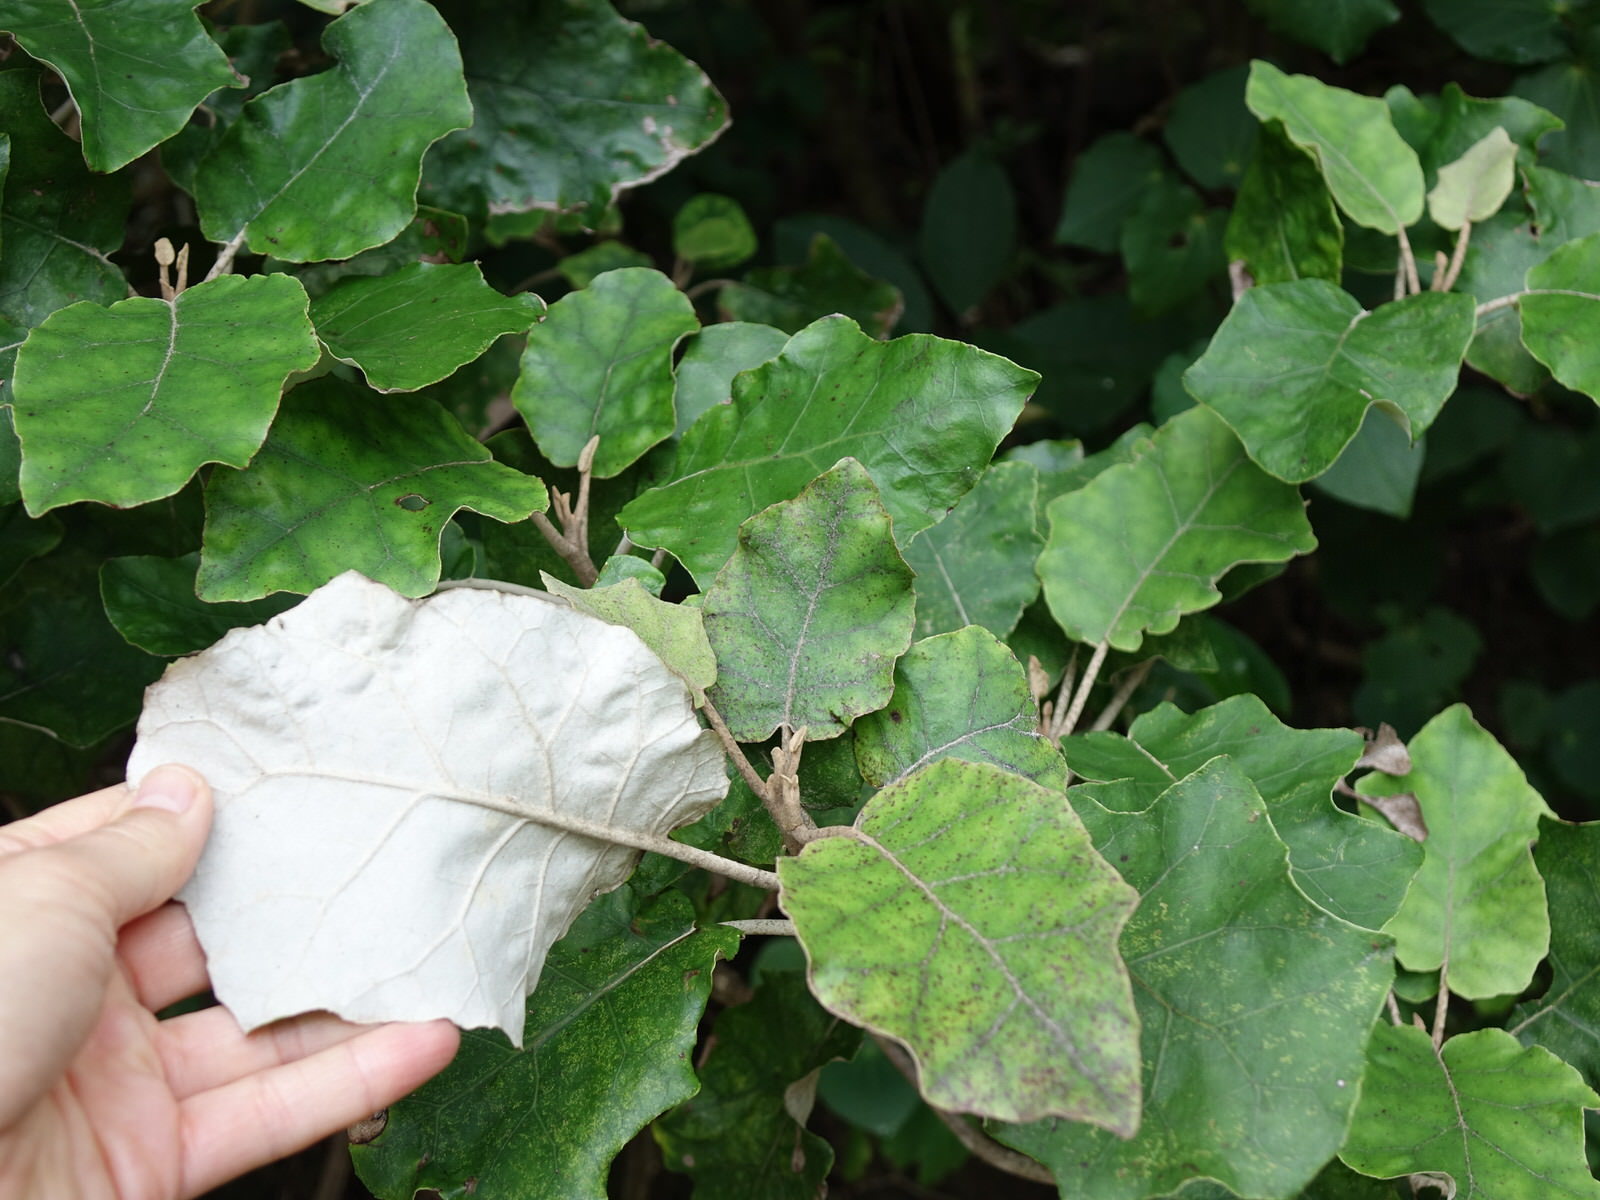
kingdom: Plantae
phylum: Tracheophyta
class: Magnoliopsida
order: Asterales
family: Asteraceae
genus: Brachyglottis
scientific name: Brachyglottis repanda
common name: Hedge ragwort
